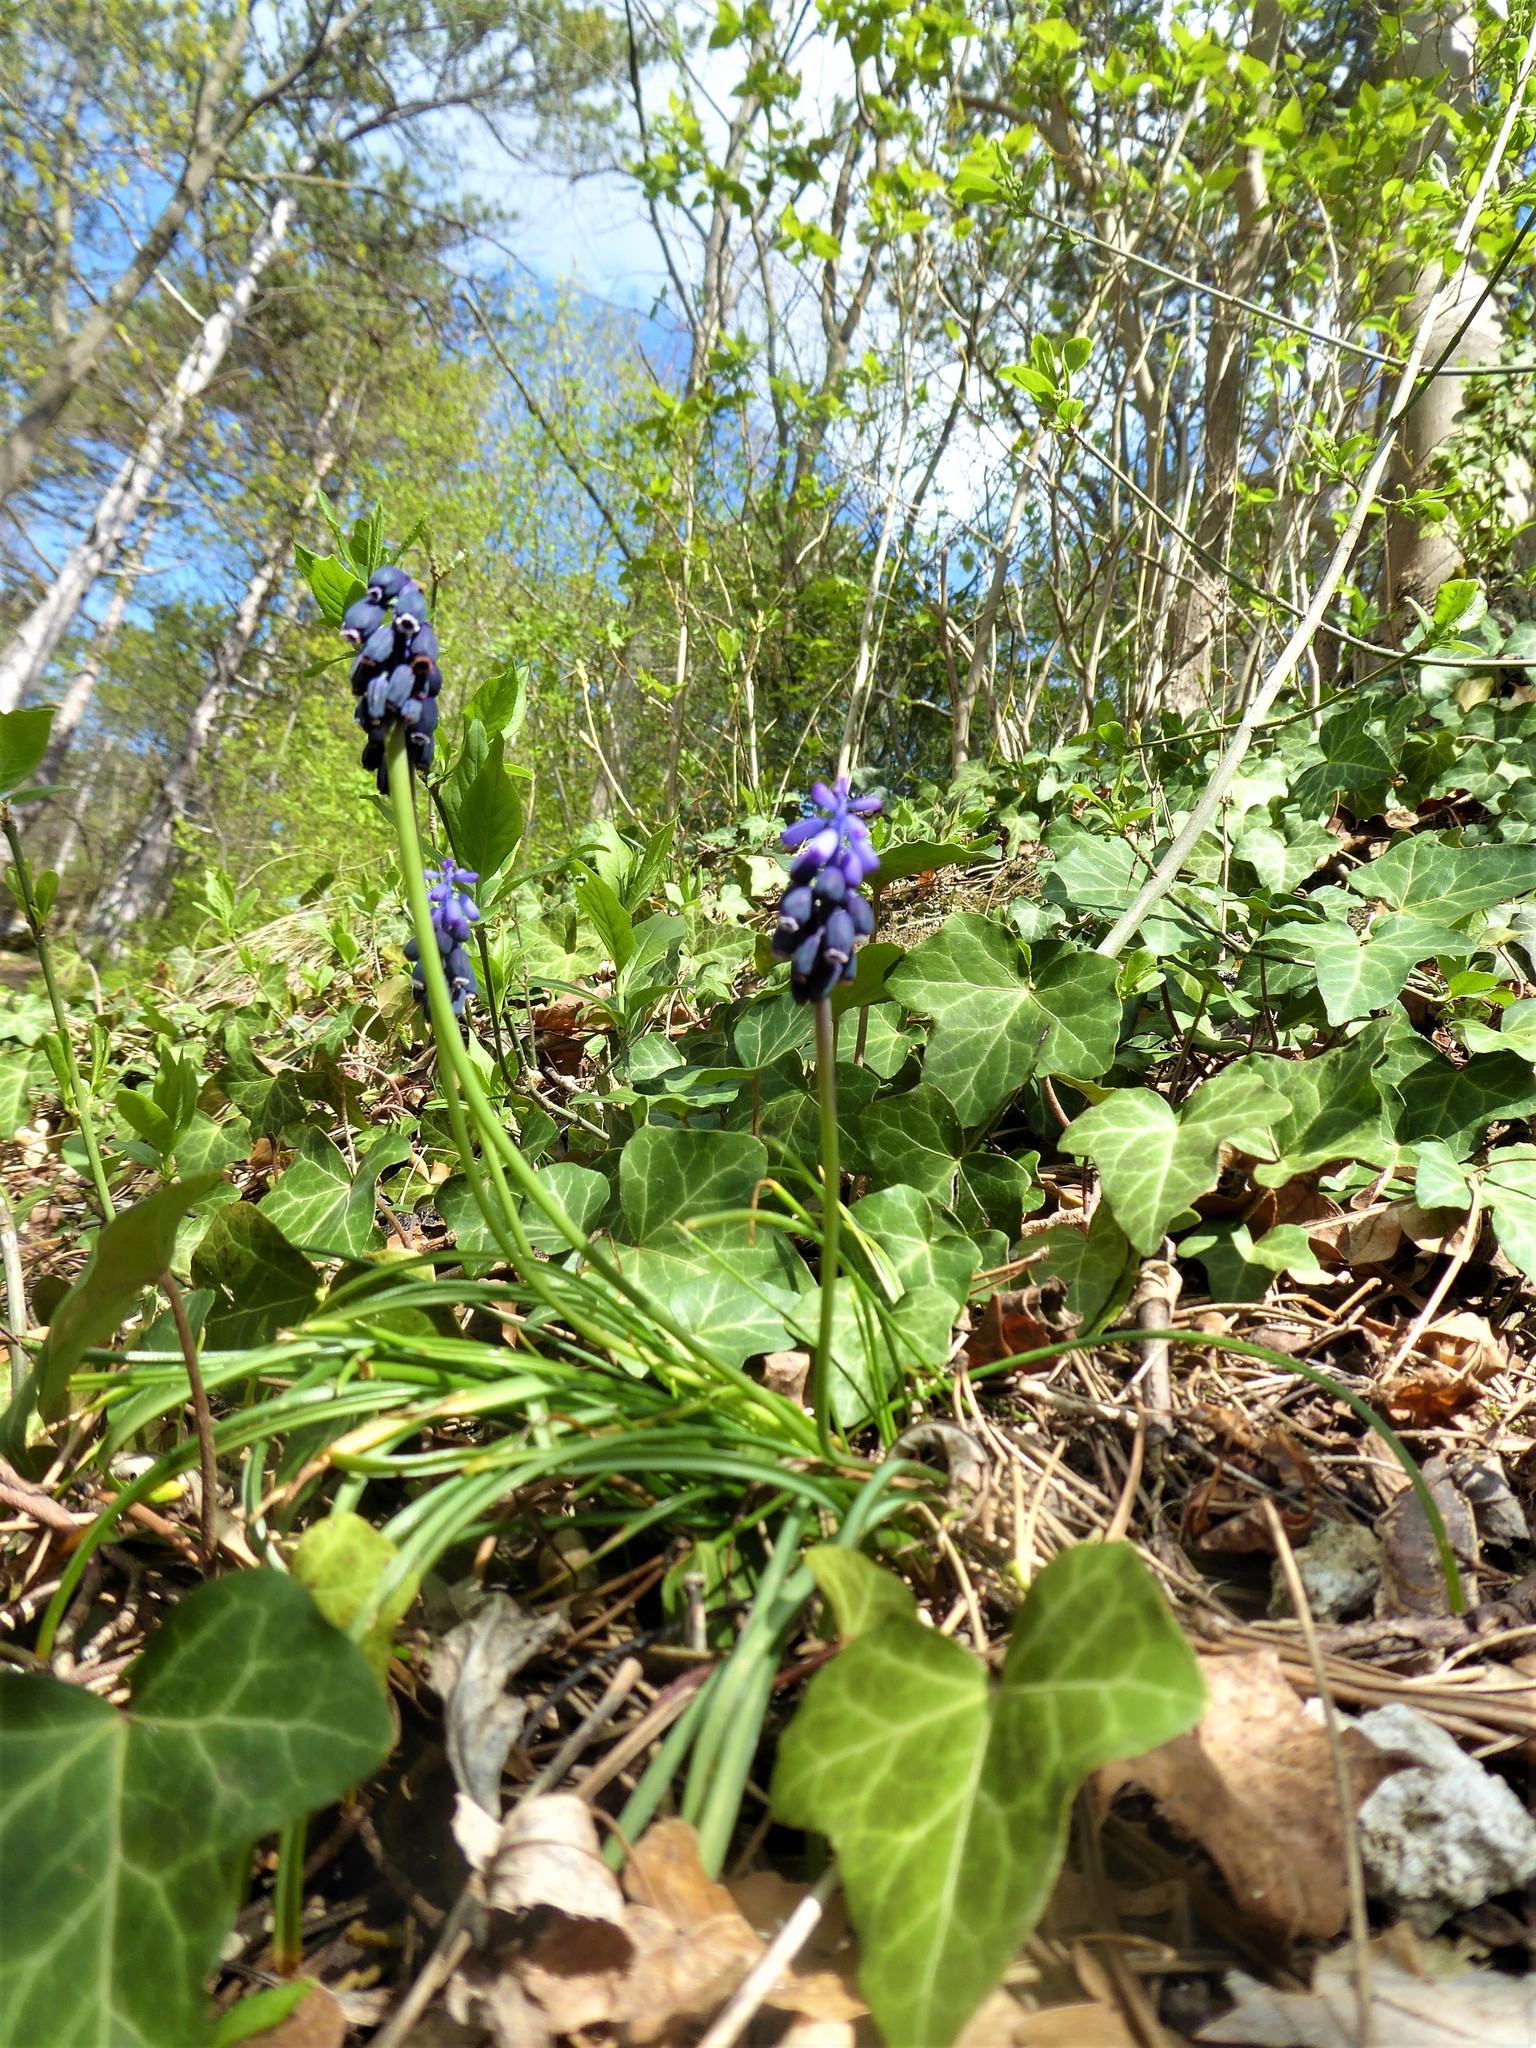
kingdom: Plantae
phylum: Tracheophyta
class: Liliopsida
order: Asparagales
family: Asparagaceae
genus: Muscari
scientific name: Muscari neglectum
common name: Grape-hyacinth
